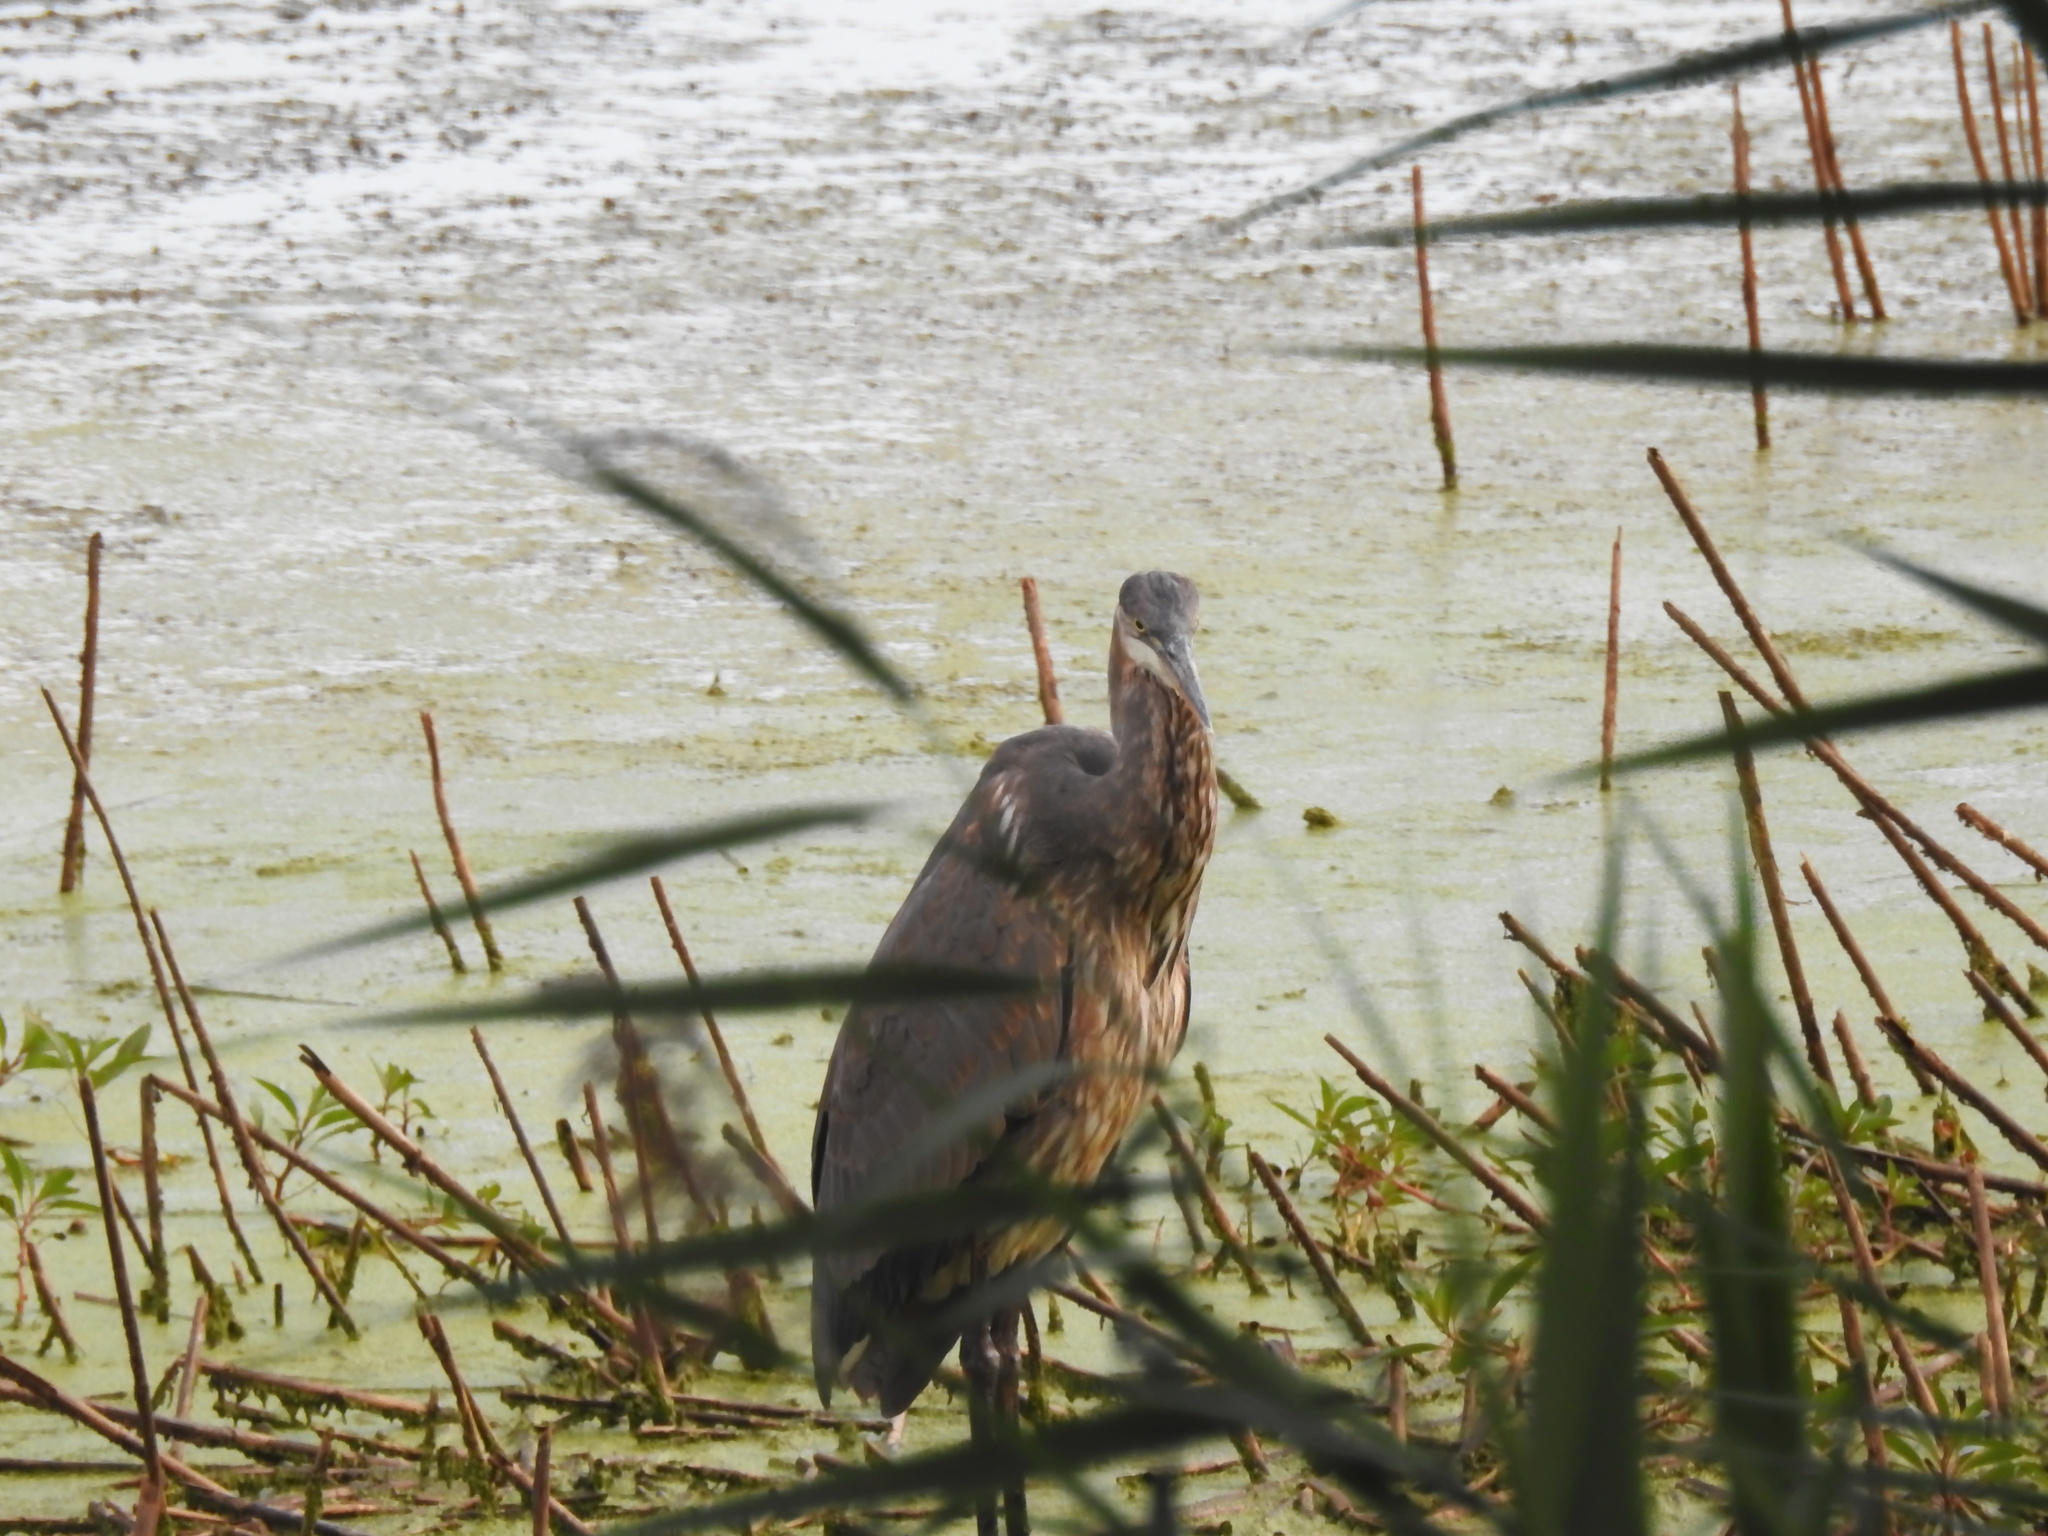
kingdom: Animalia
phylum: Chordata
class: Aves
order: Pelecaniformes
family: Ardeidae
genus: Ardea
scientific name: Ardea herodias
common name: Great blue heron
